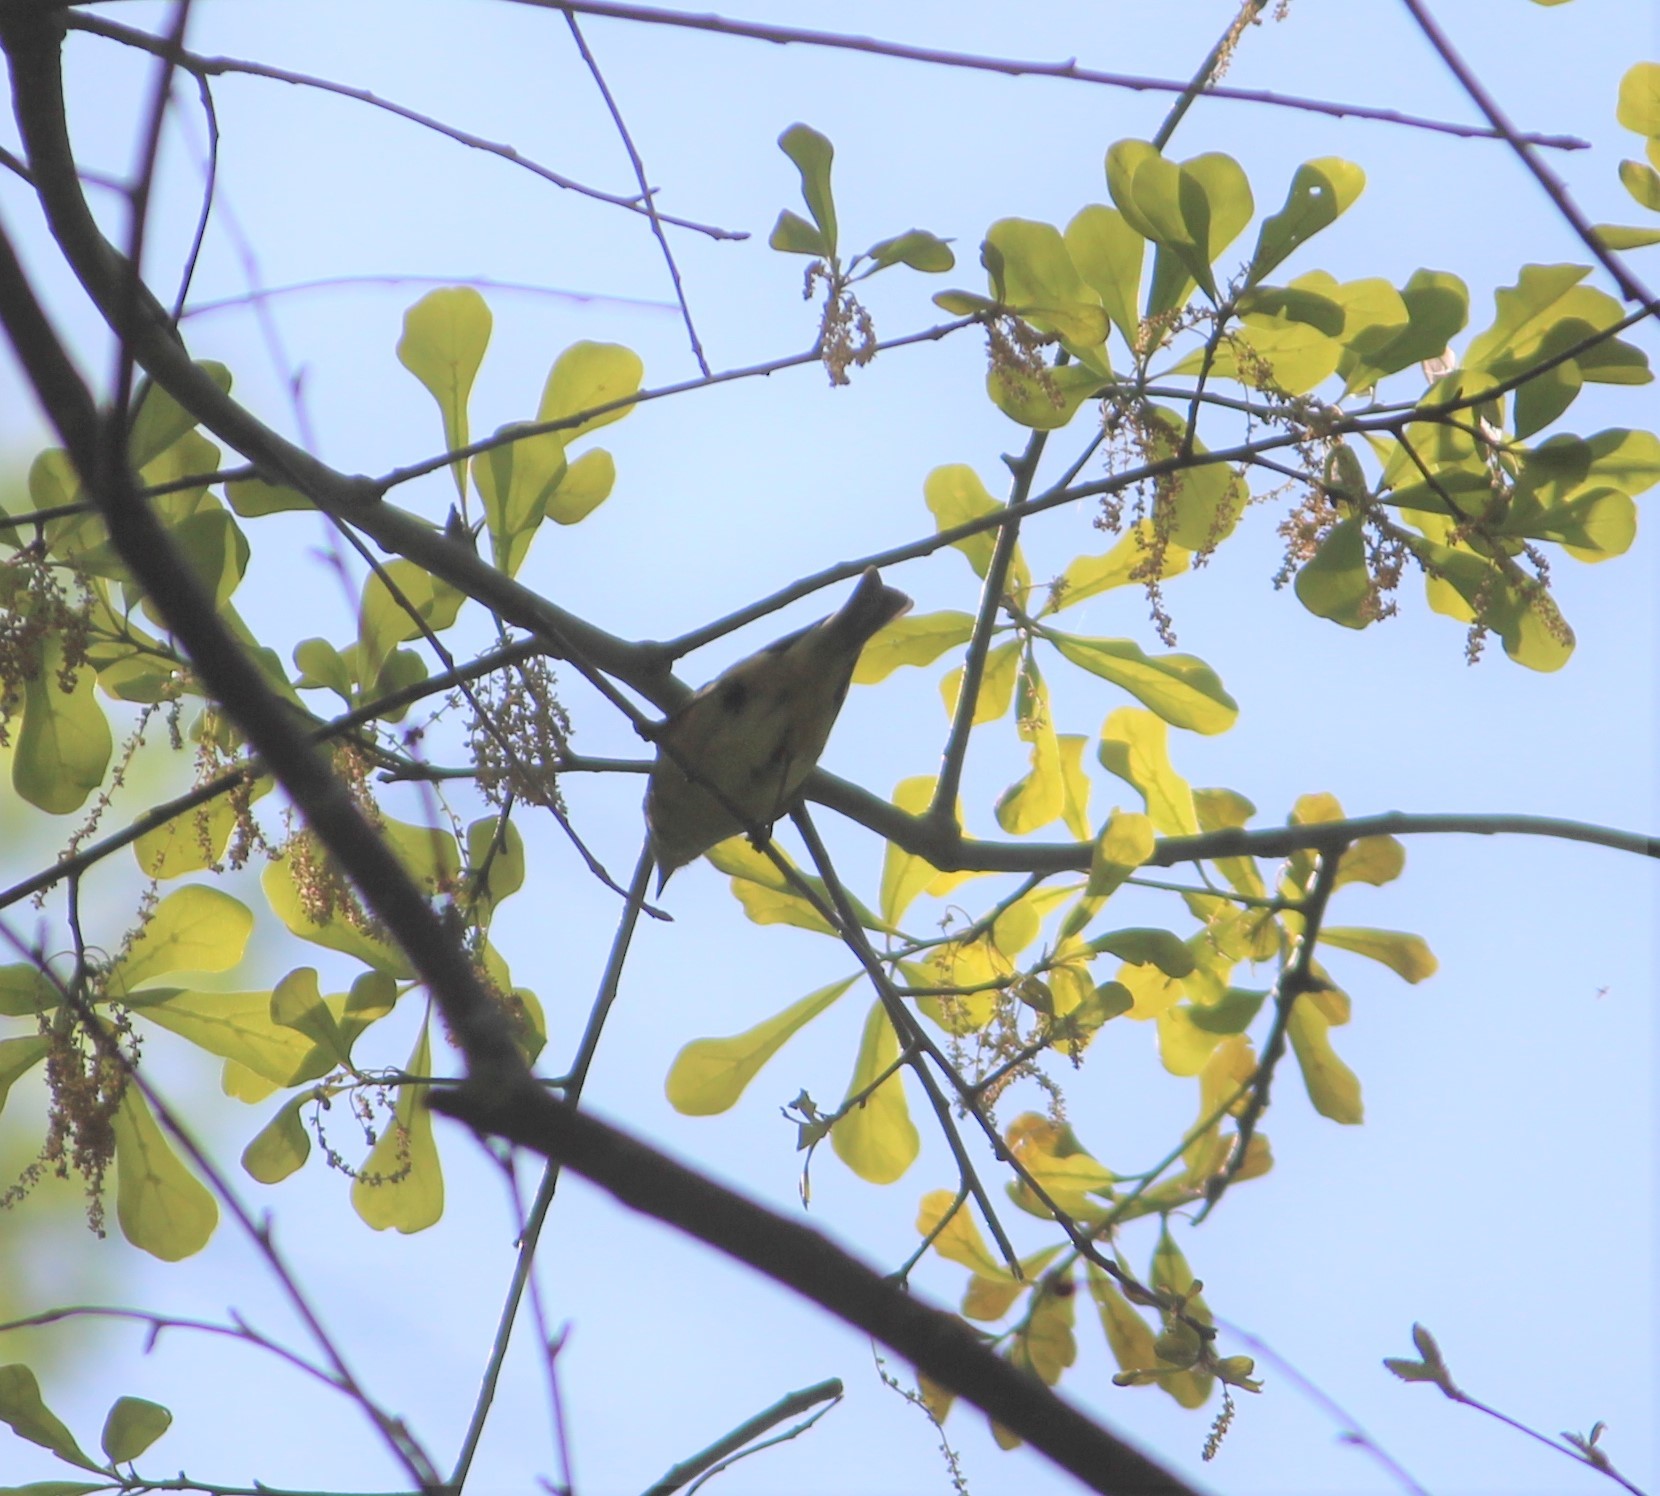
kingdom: Animalia
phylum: Chordata
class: Aves
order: Passeriformes
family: Regulidae
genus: Regulus
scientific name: Regulus calendula
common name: Ruby-crowned kinglet
